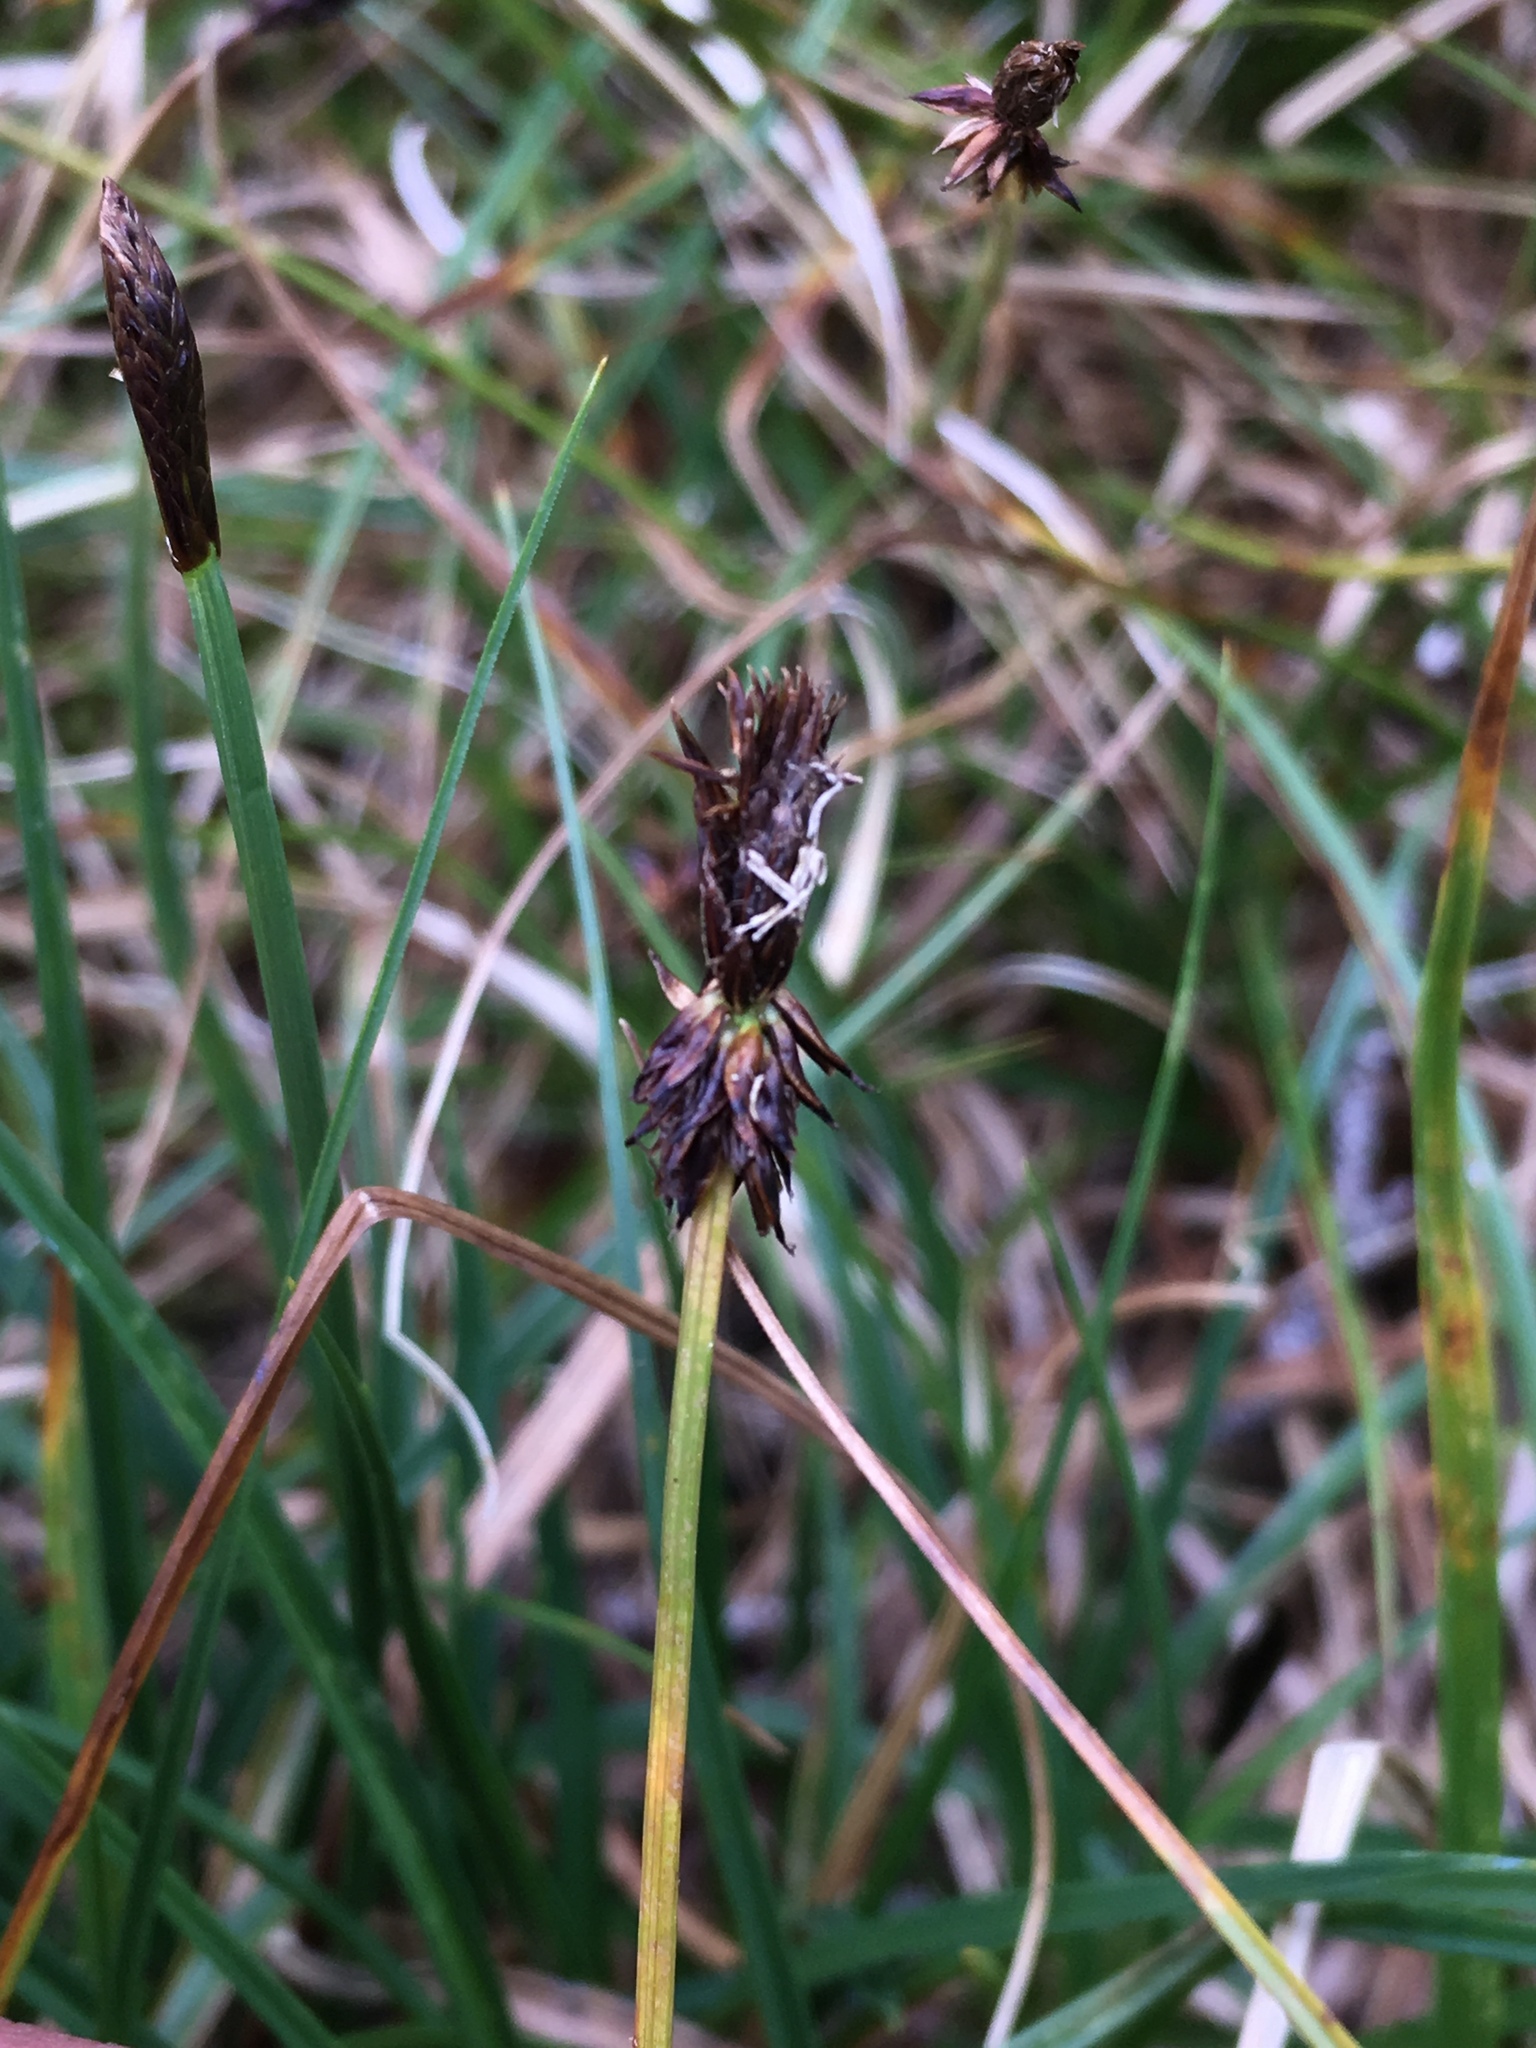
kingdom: Plantae
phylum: Tracheophyta
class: Liliopsida
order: Poales
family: Cyperaceae
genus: Carex
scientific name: Carex nigricans
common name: Black alpine sedge
